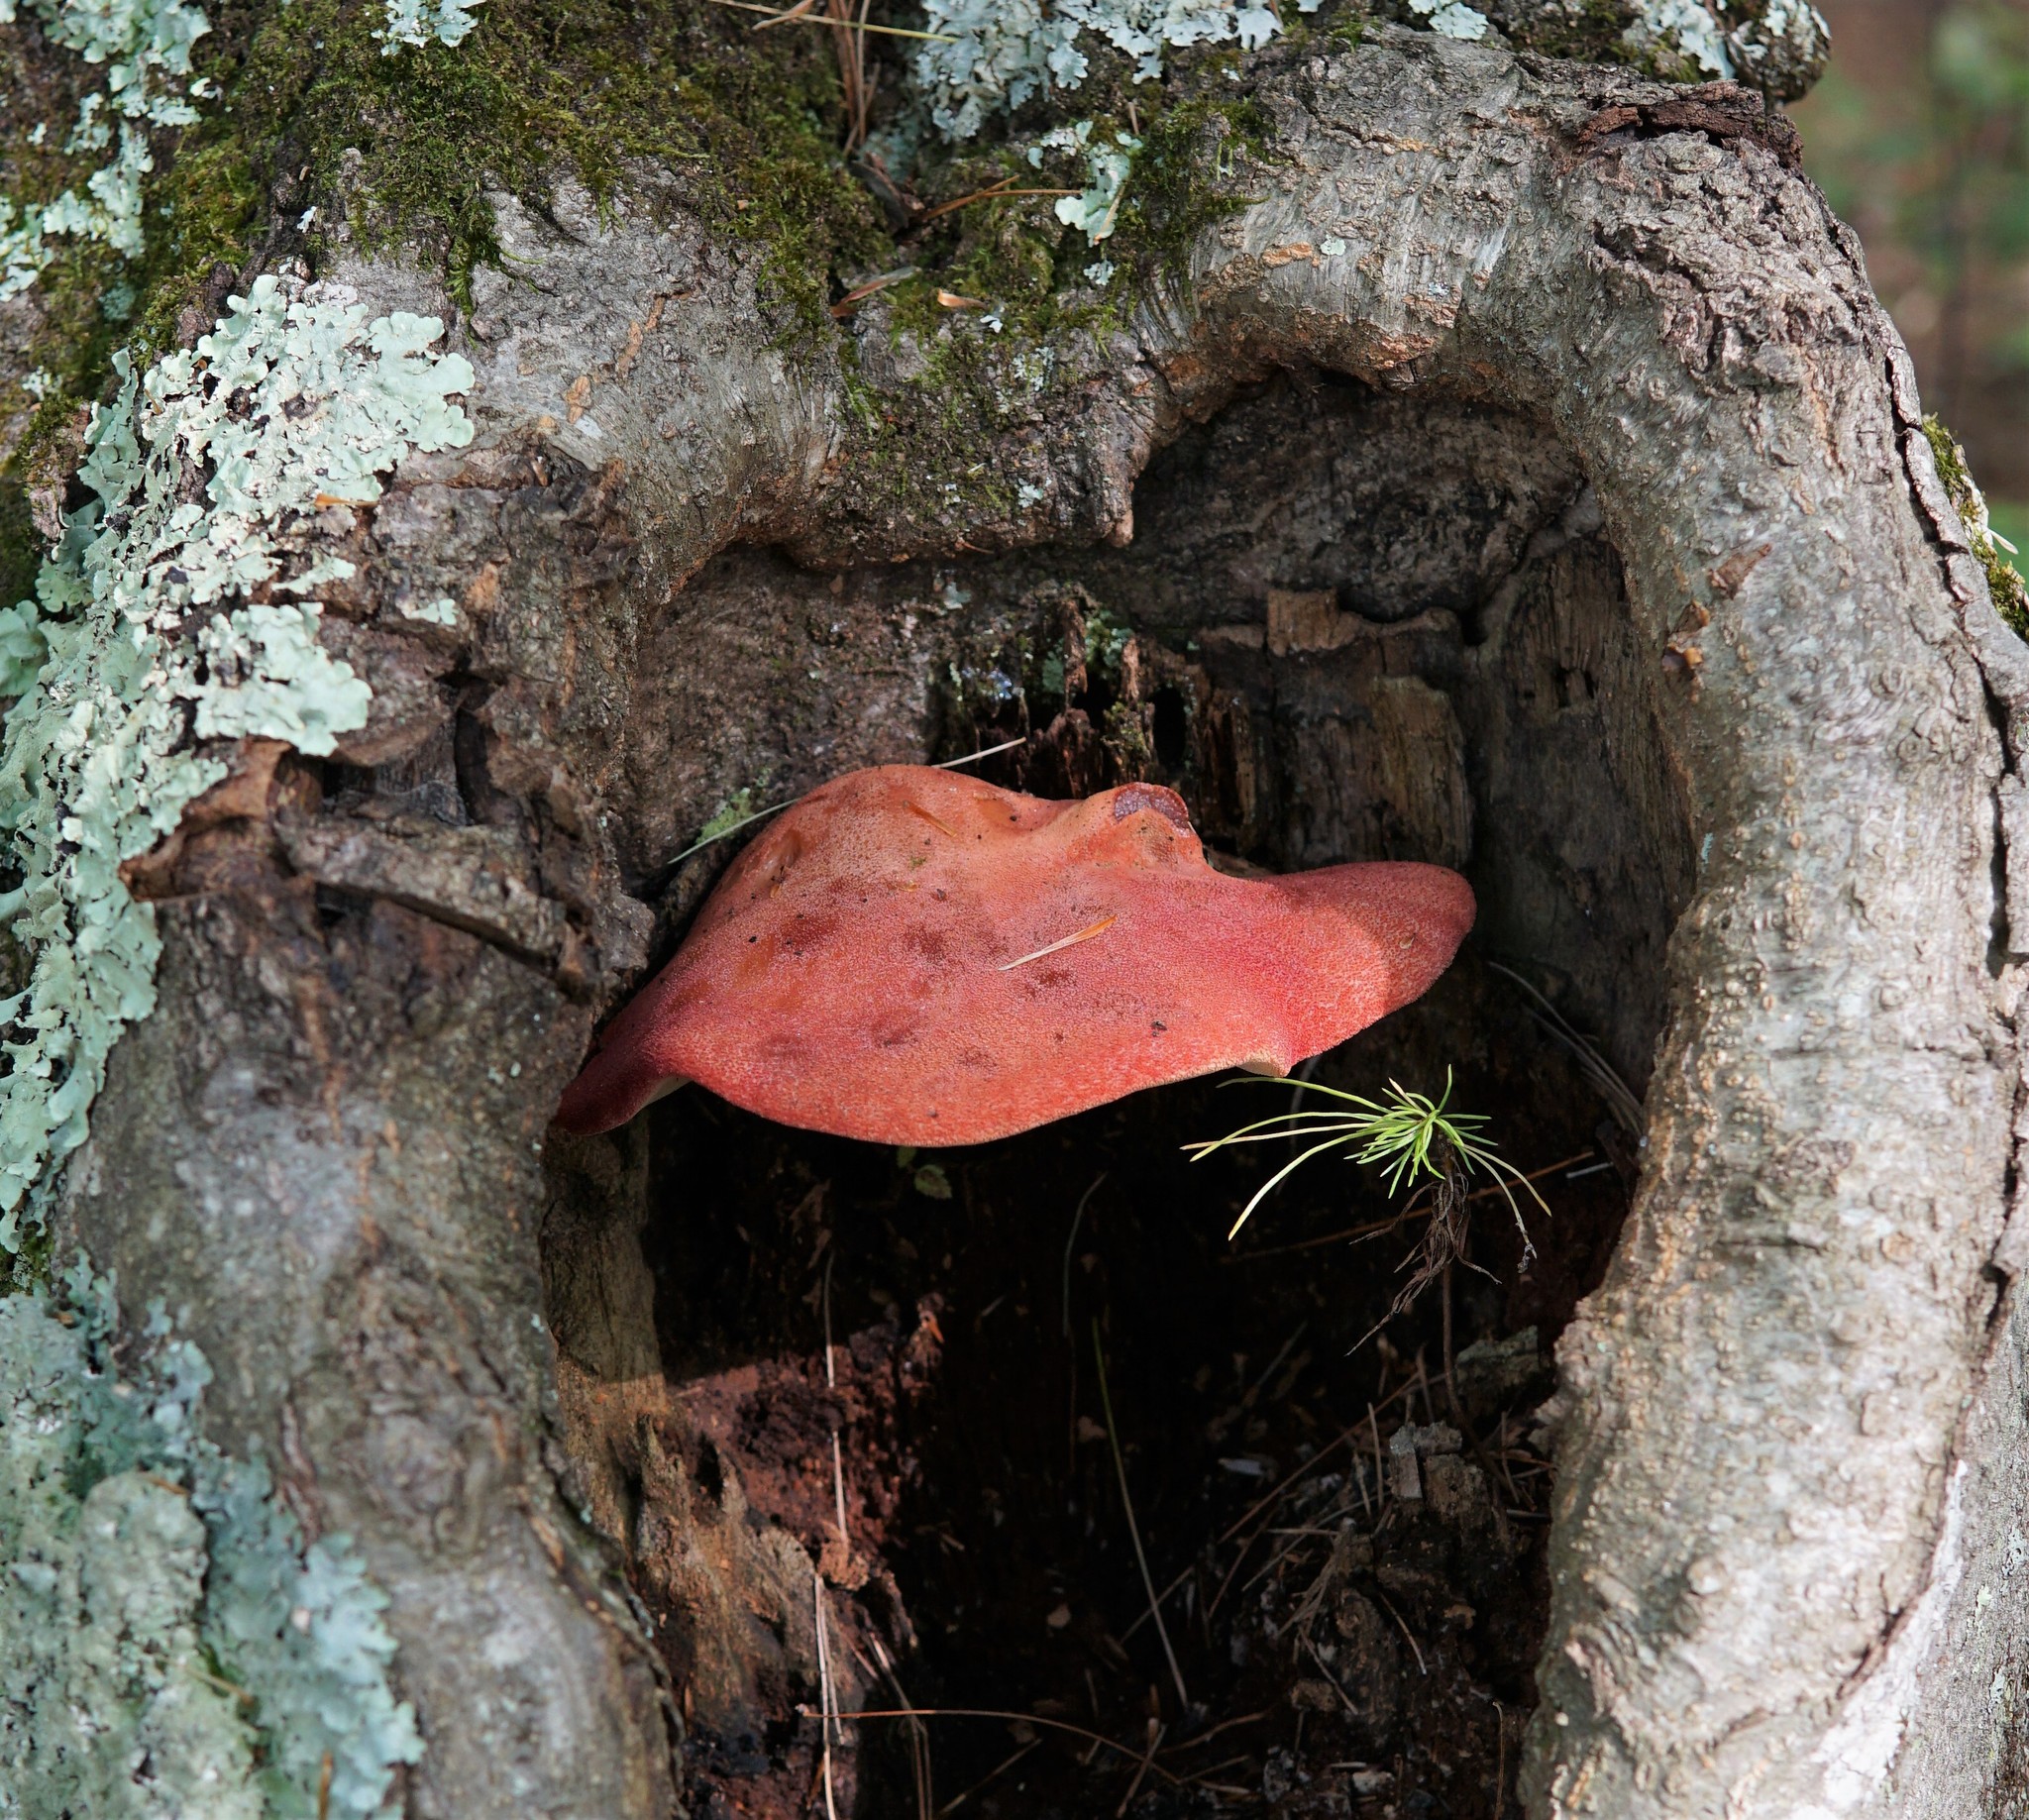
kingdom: Fungi
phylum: Basidiomycota
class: Agaricomycetes
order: Agaricales
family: Fistulinaceae
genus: Fistulina
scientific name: Fistulina hepatica
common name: Beef-steak fungus
